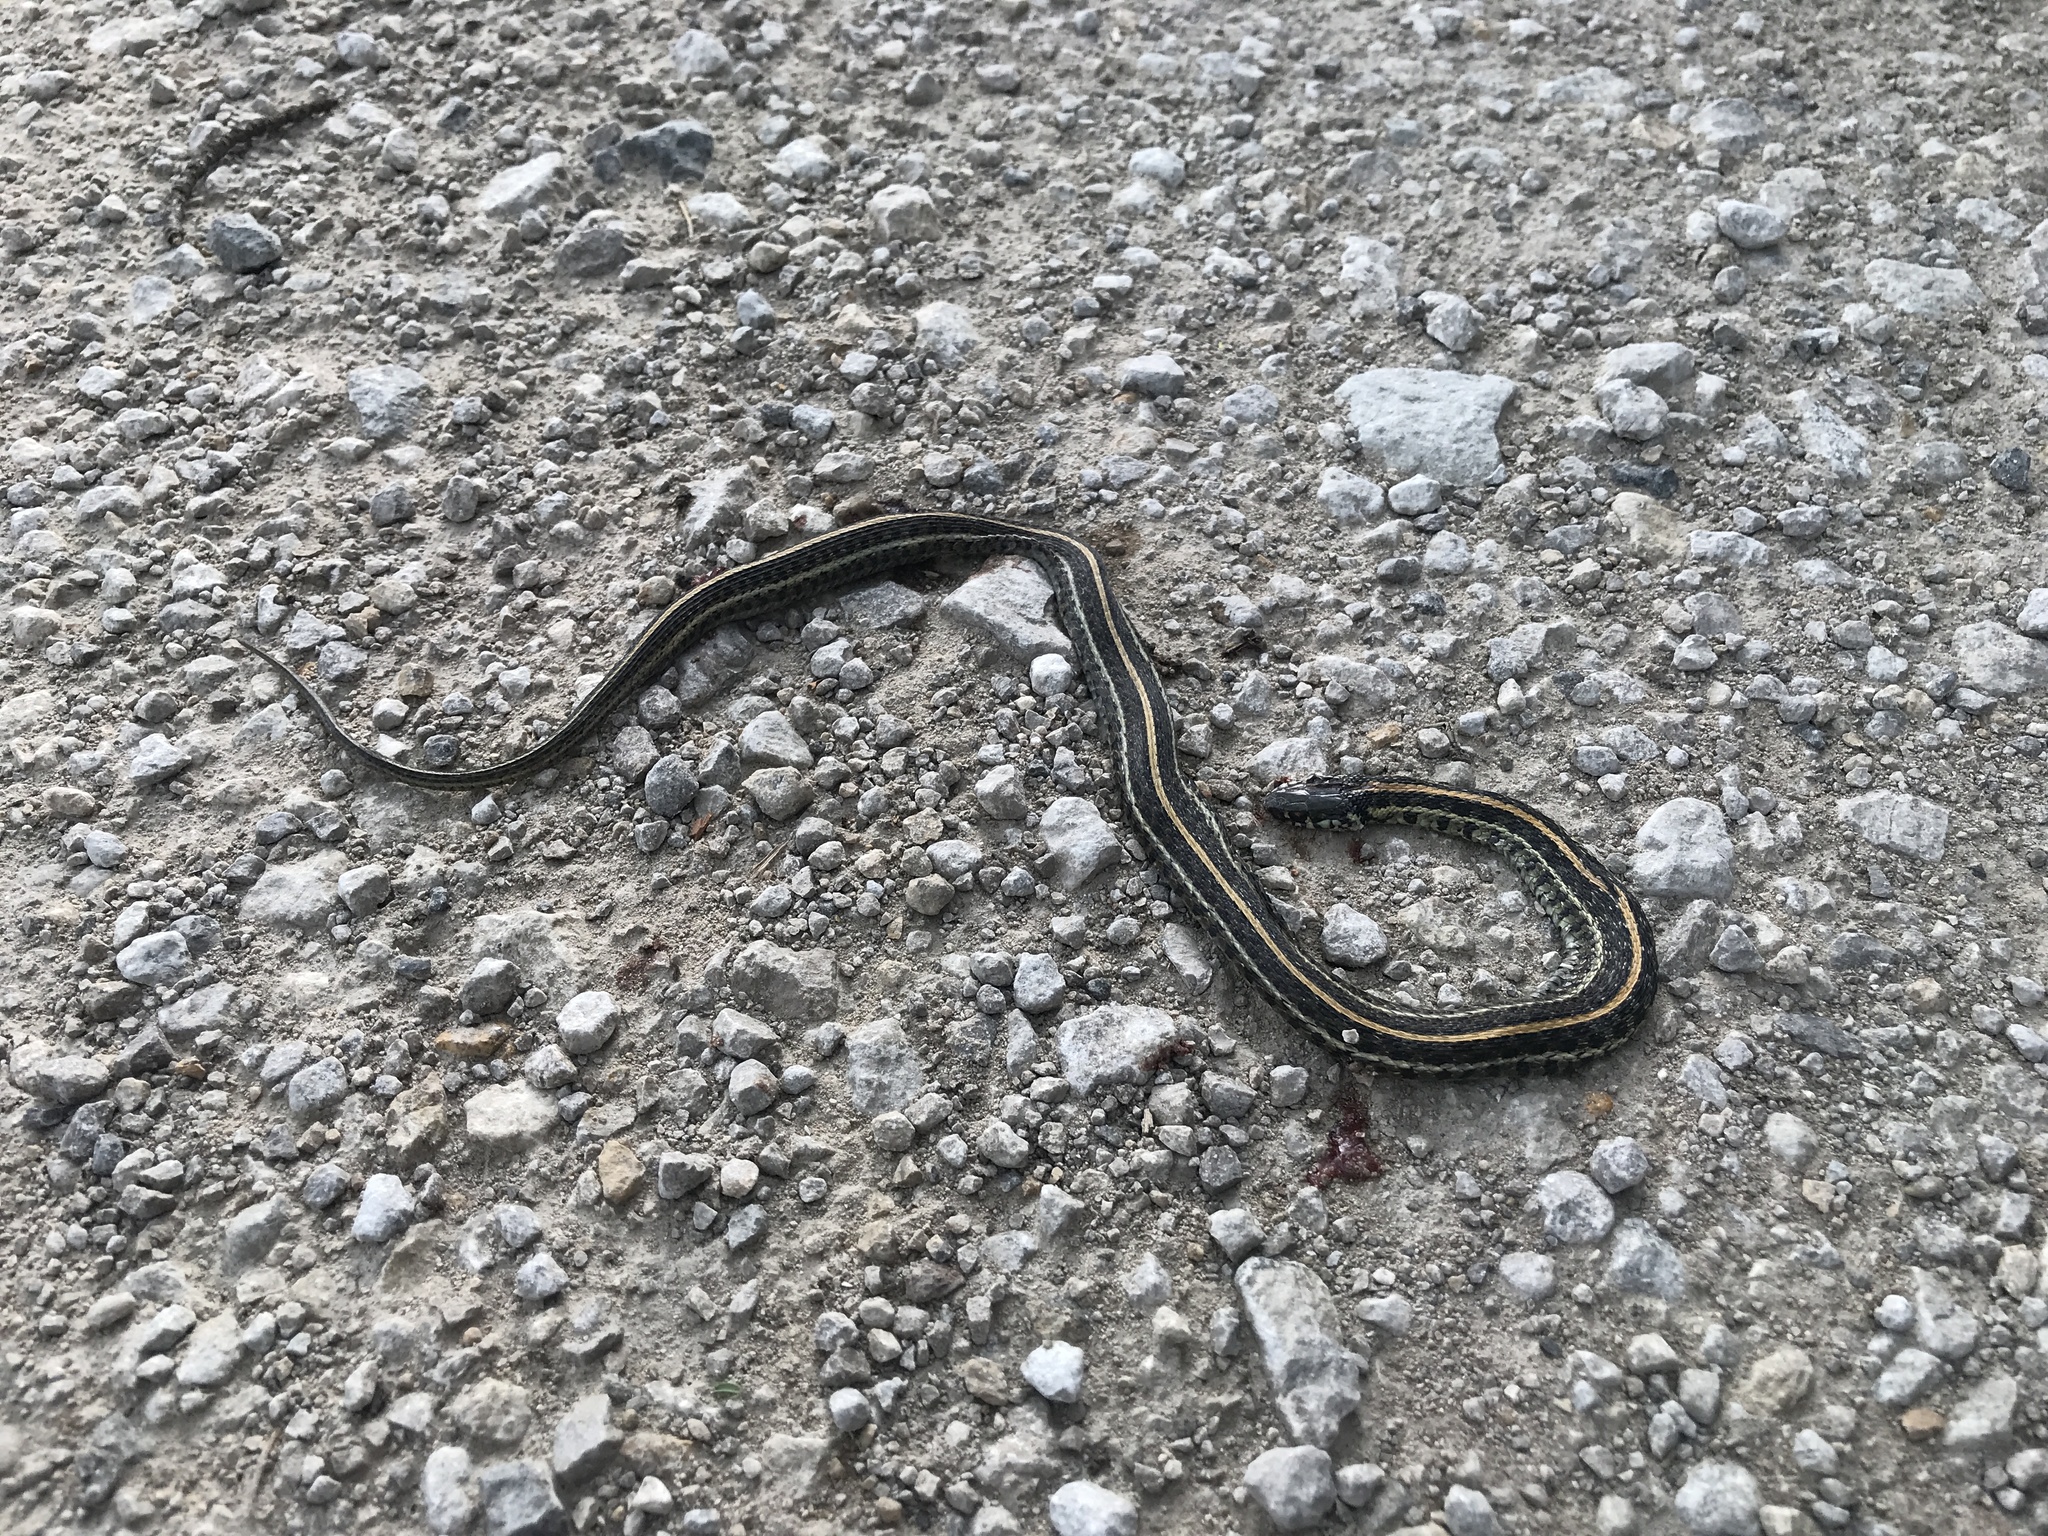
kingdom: Animalia
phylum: Chordata
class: Squamata
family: Colubridae
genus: Thamnophis
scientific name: Thamnophis radix
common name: Plains garter snake
